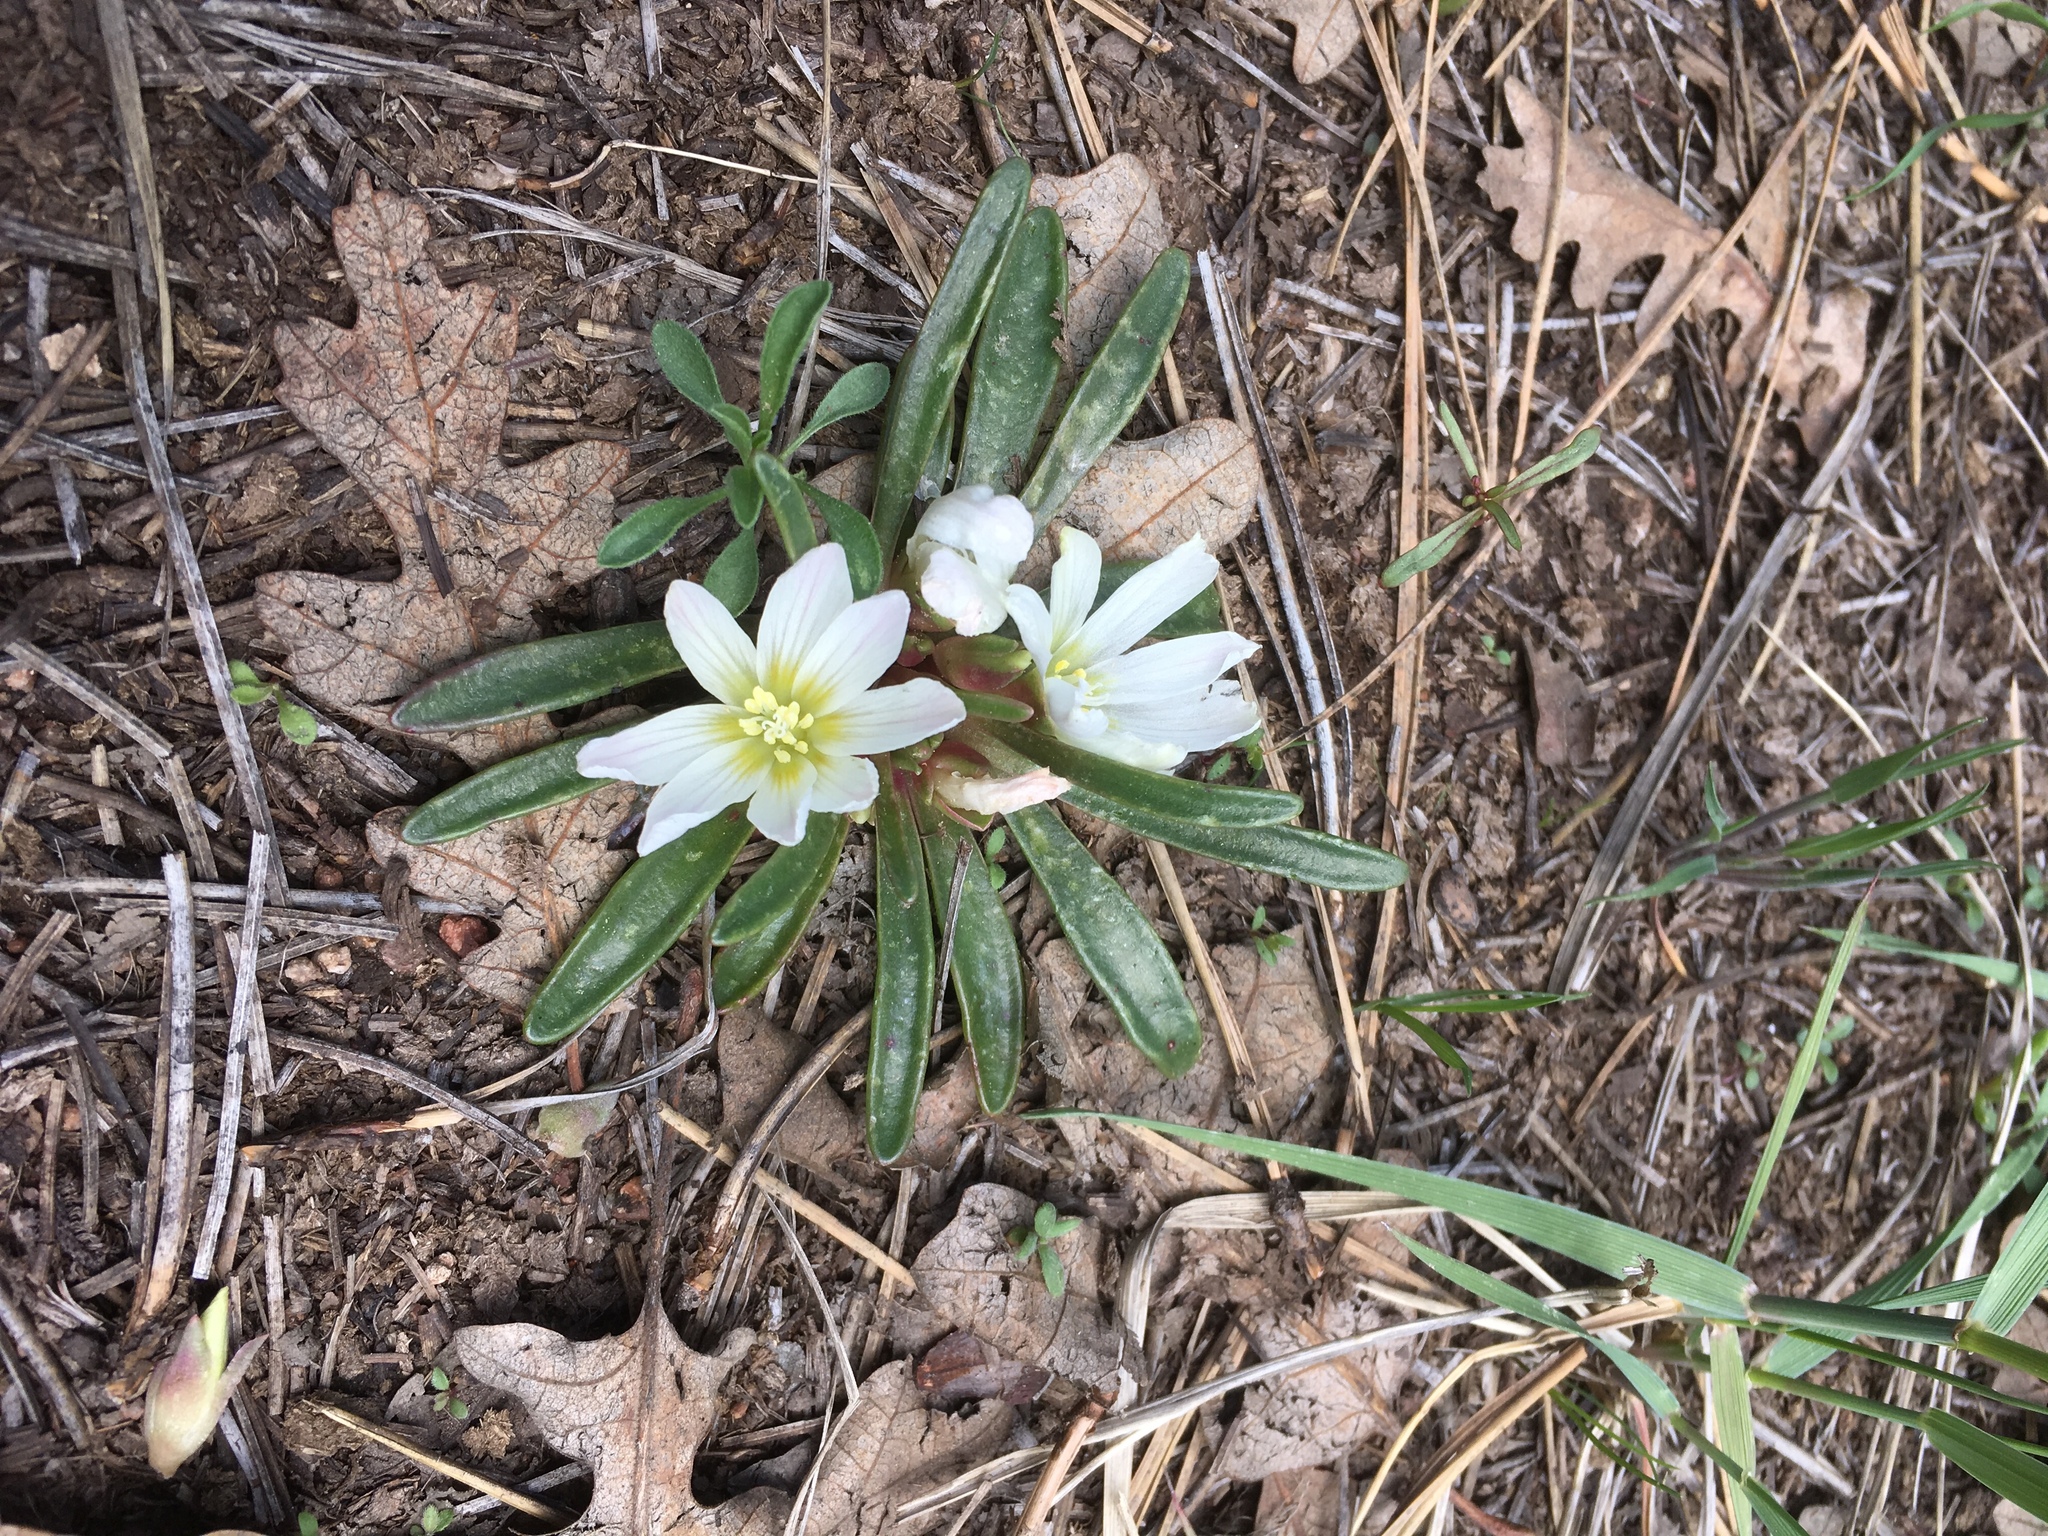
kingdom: Plantae
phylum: Tracheophyta
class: Magnoliopsida
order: Caryophyllales
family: Montiaceae
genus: Lewisia
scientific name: Lewisia brachycalyx
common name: Short-sepal lewisia
